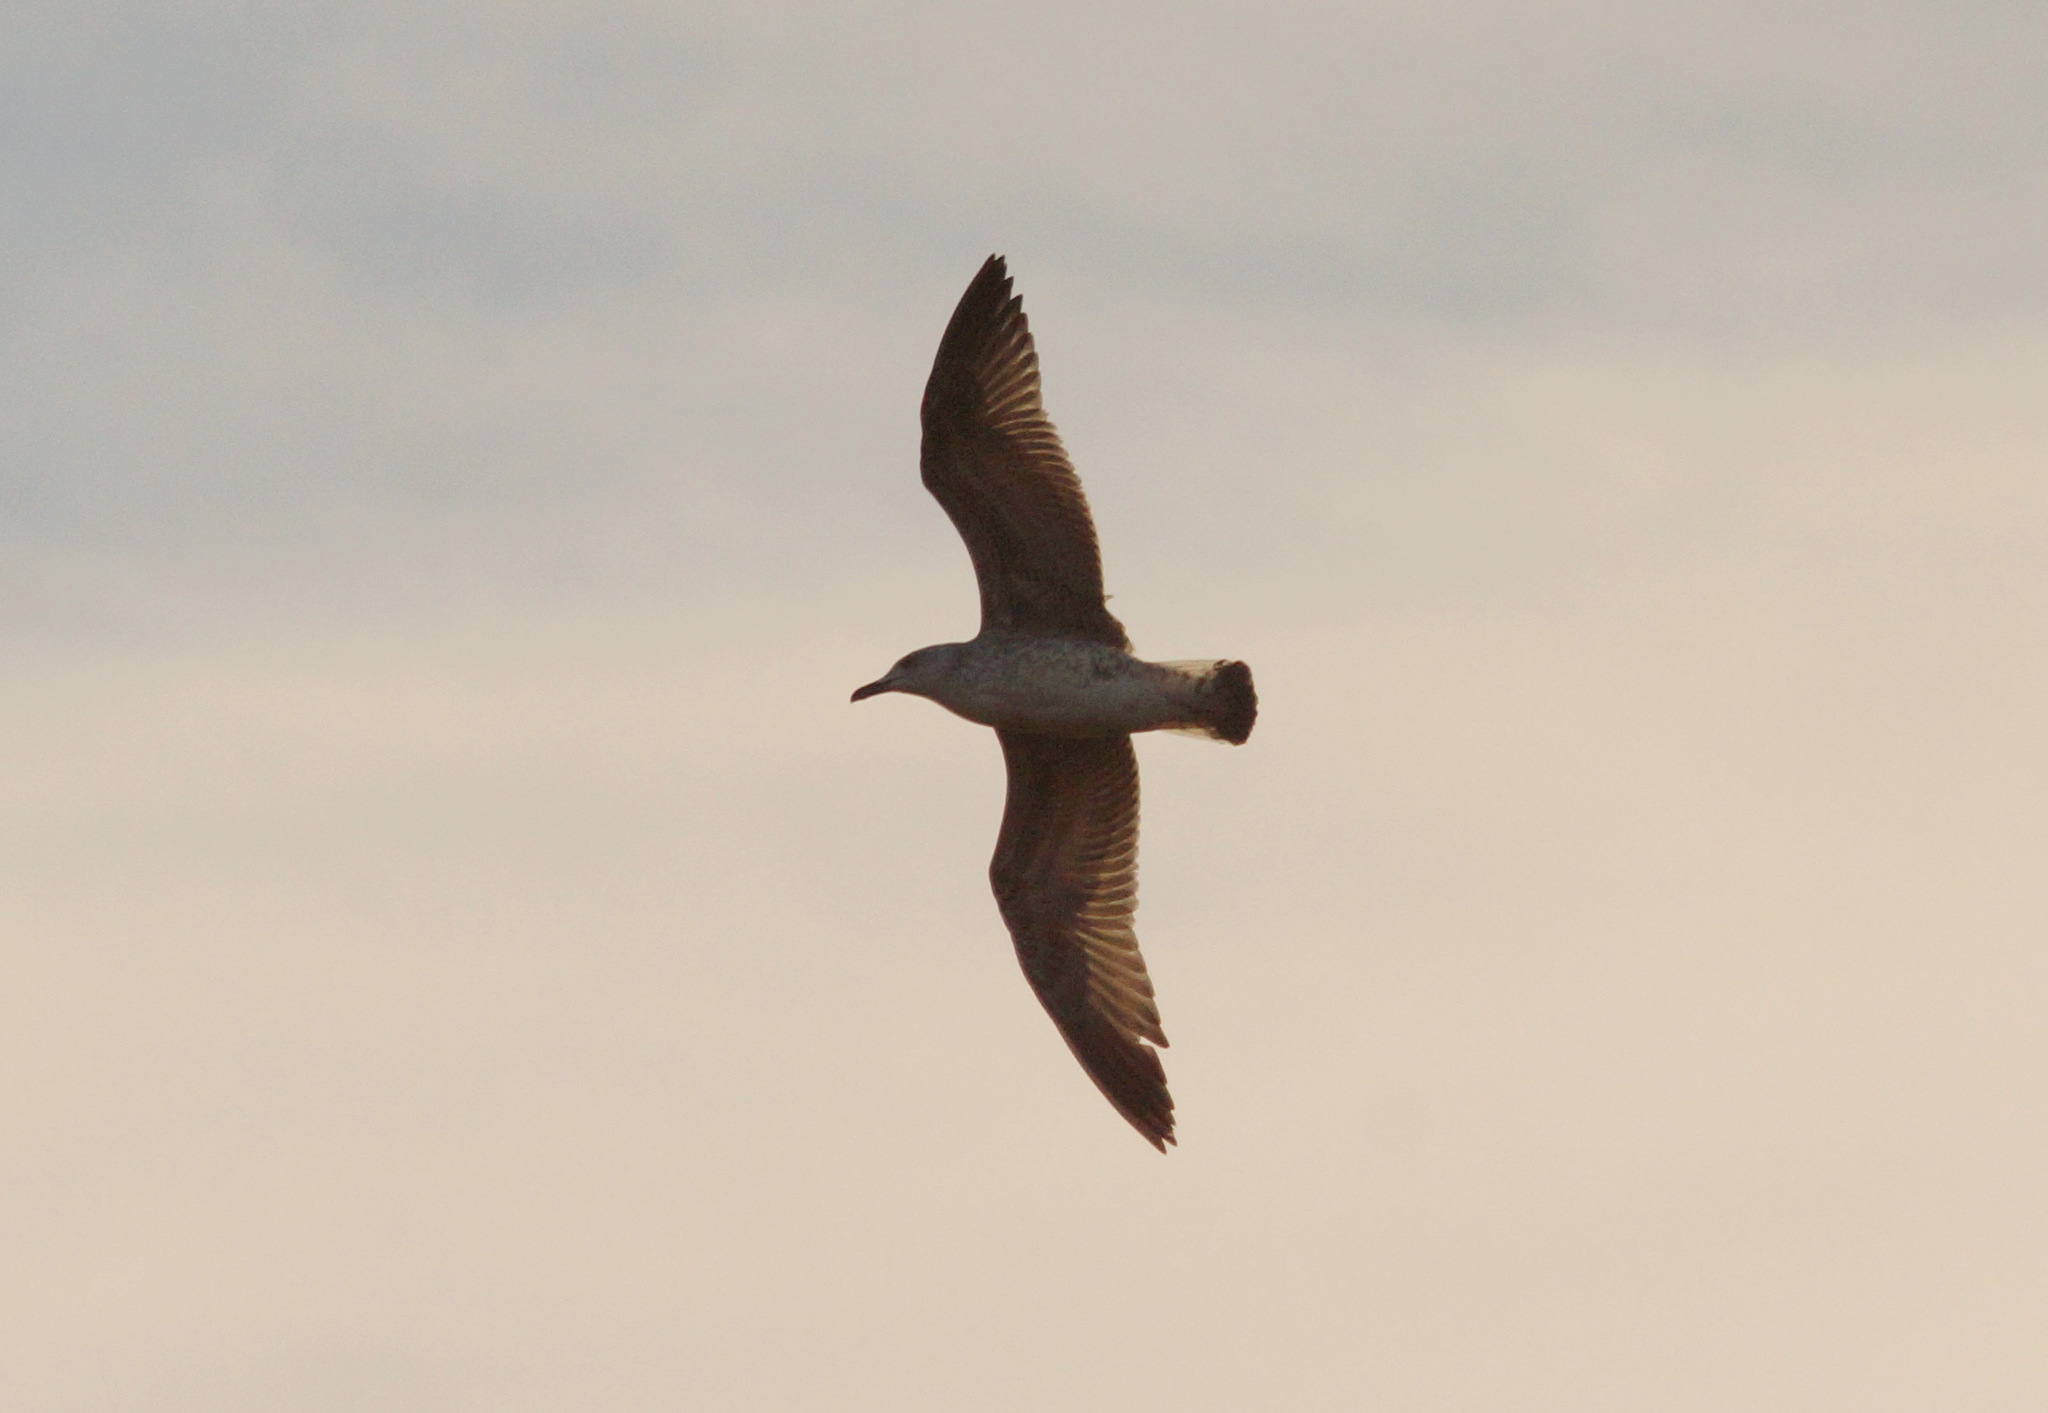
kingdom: Animalia
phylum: Chordata
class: Aves
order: Charadriiformes
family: Laridae
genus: Larus
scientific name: Larus michahellis
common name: Yellow-legged gull
